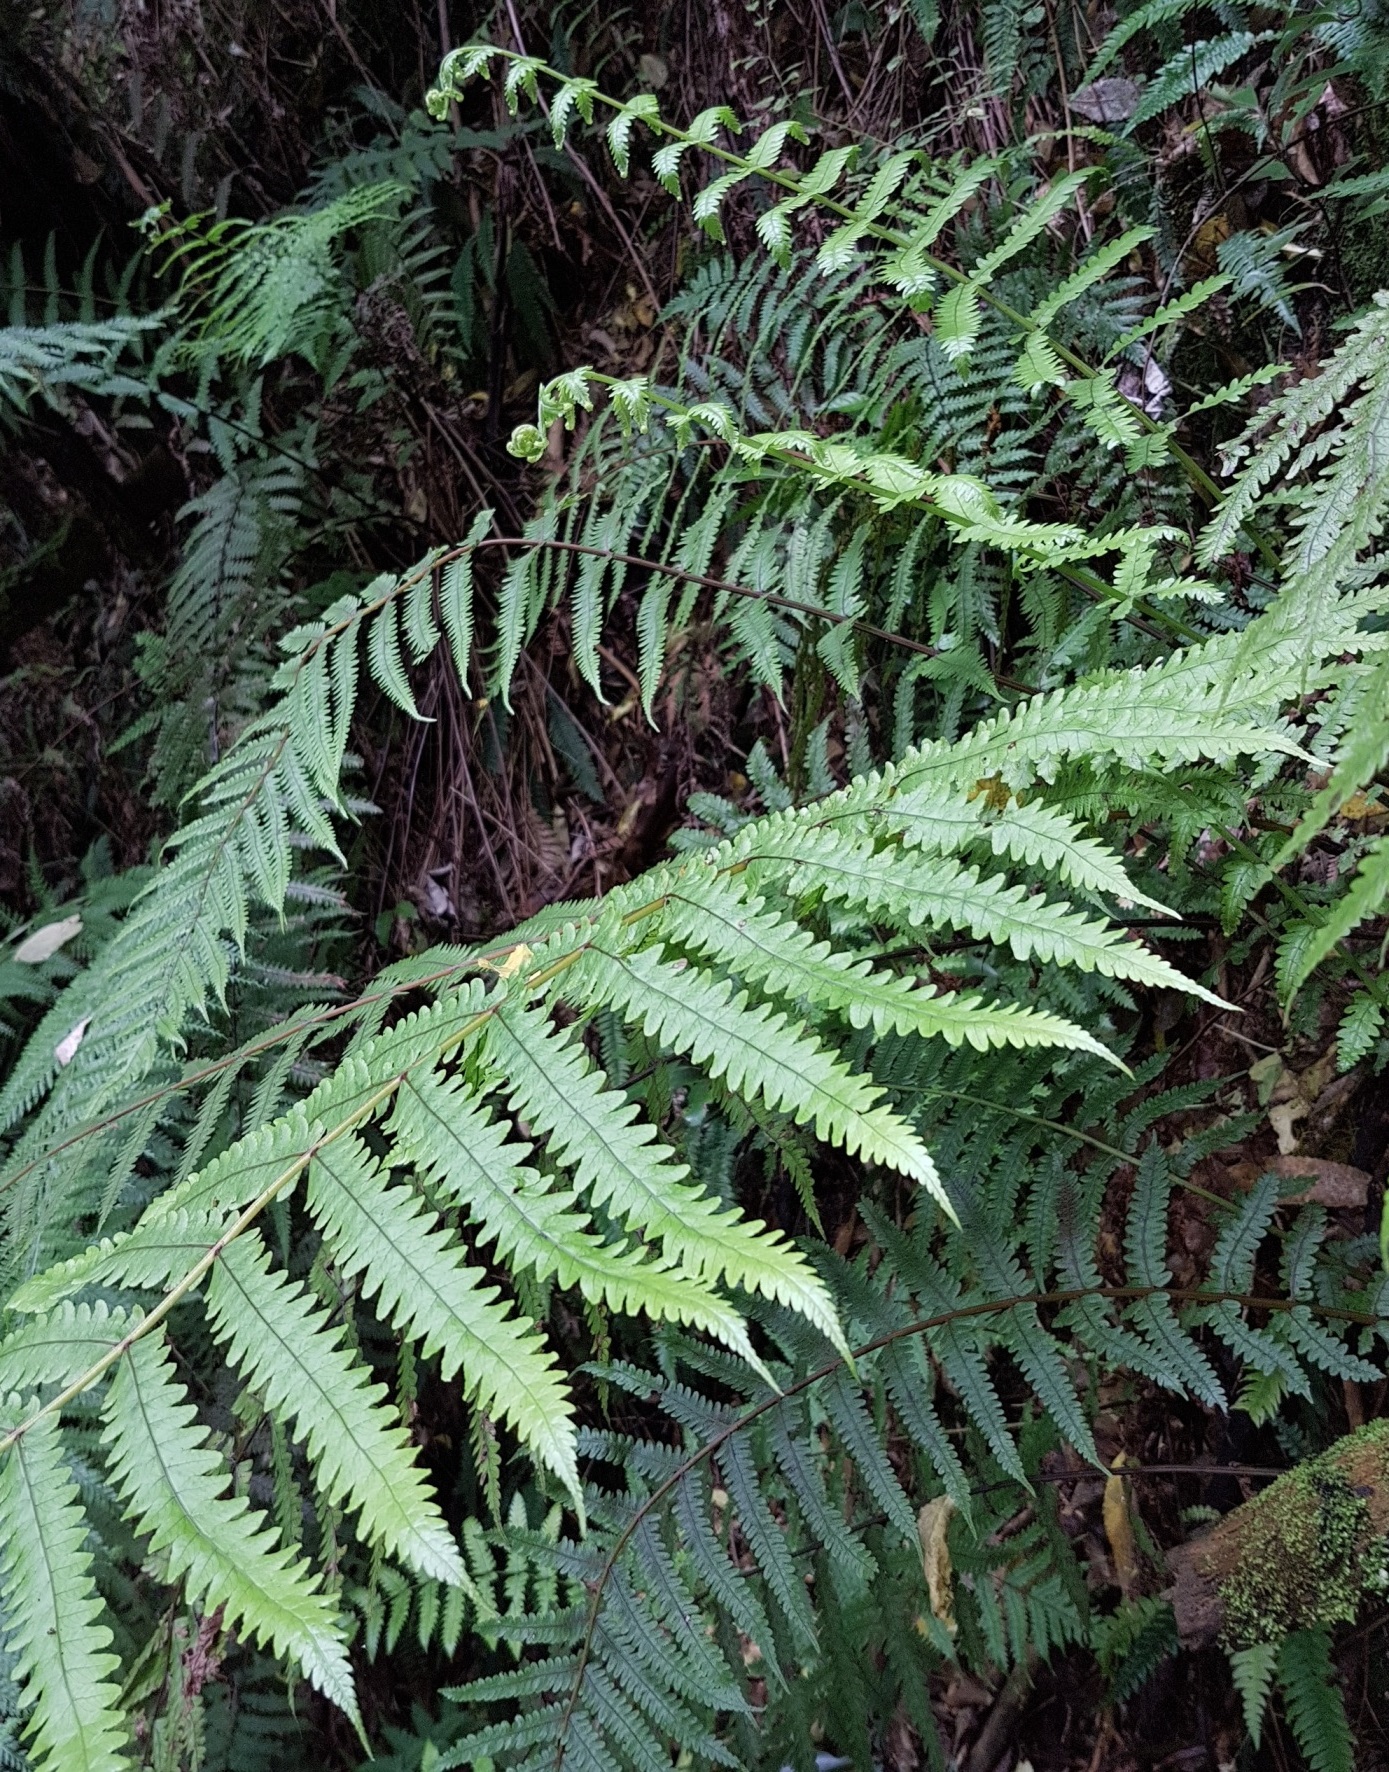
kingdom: Plantae
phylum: Tracheophyta
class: Polypodiopsida
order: Polypodiales
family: Thelypteridaceae
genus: Pakau
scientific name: Pakau pennigera
